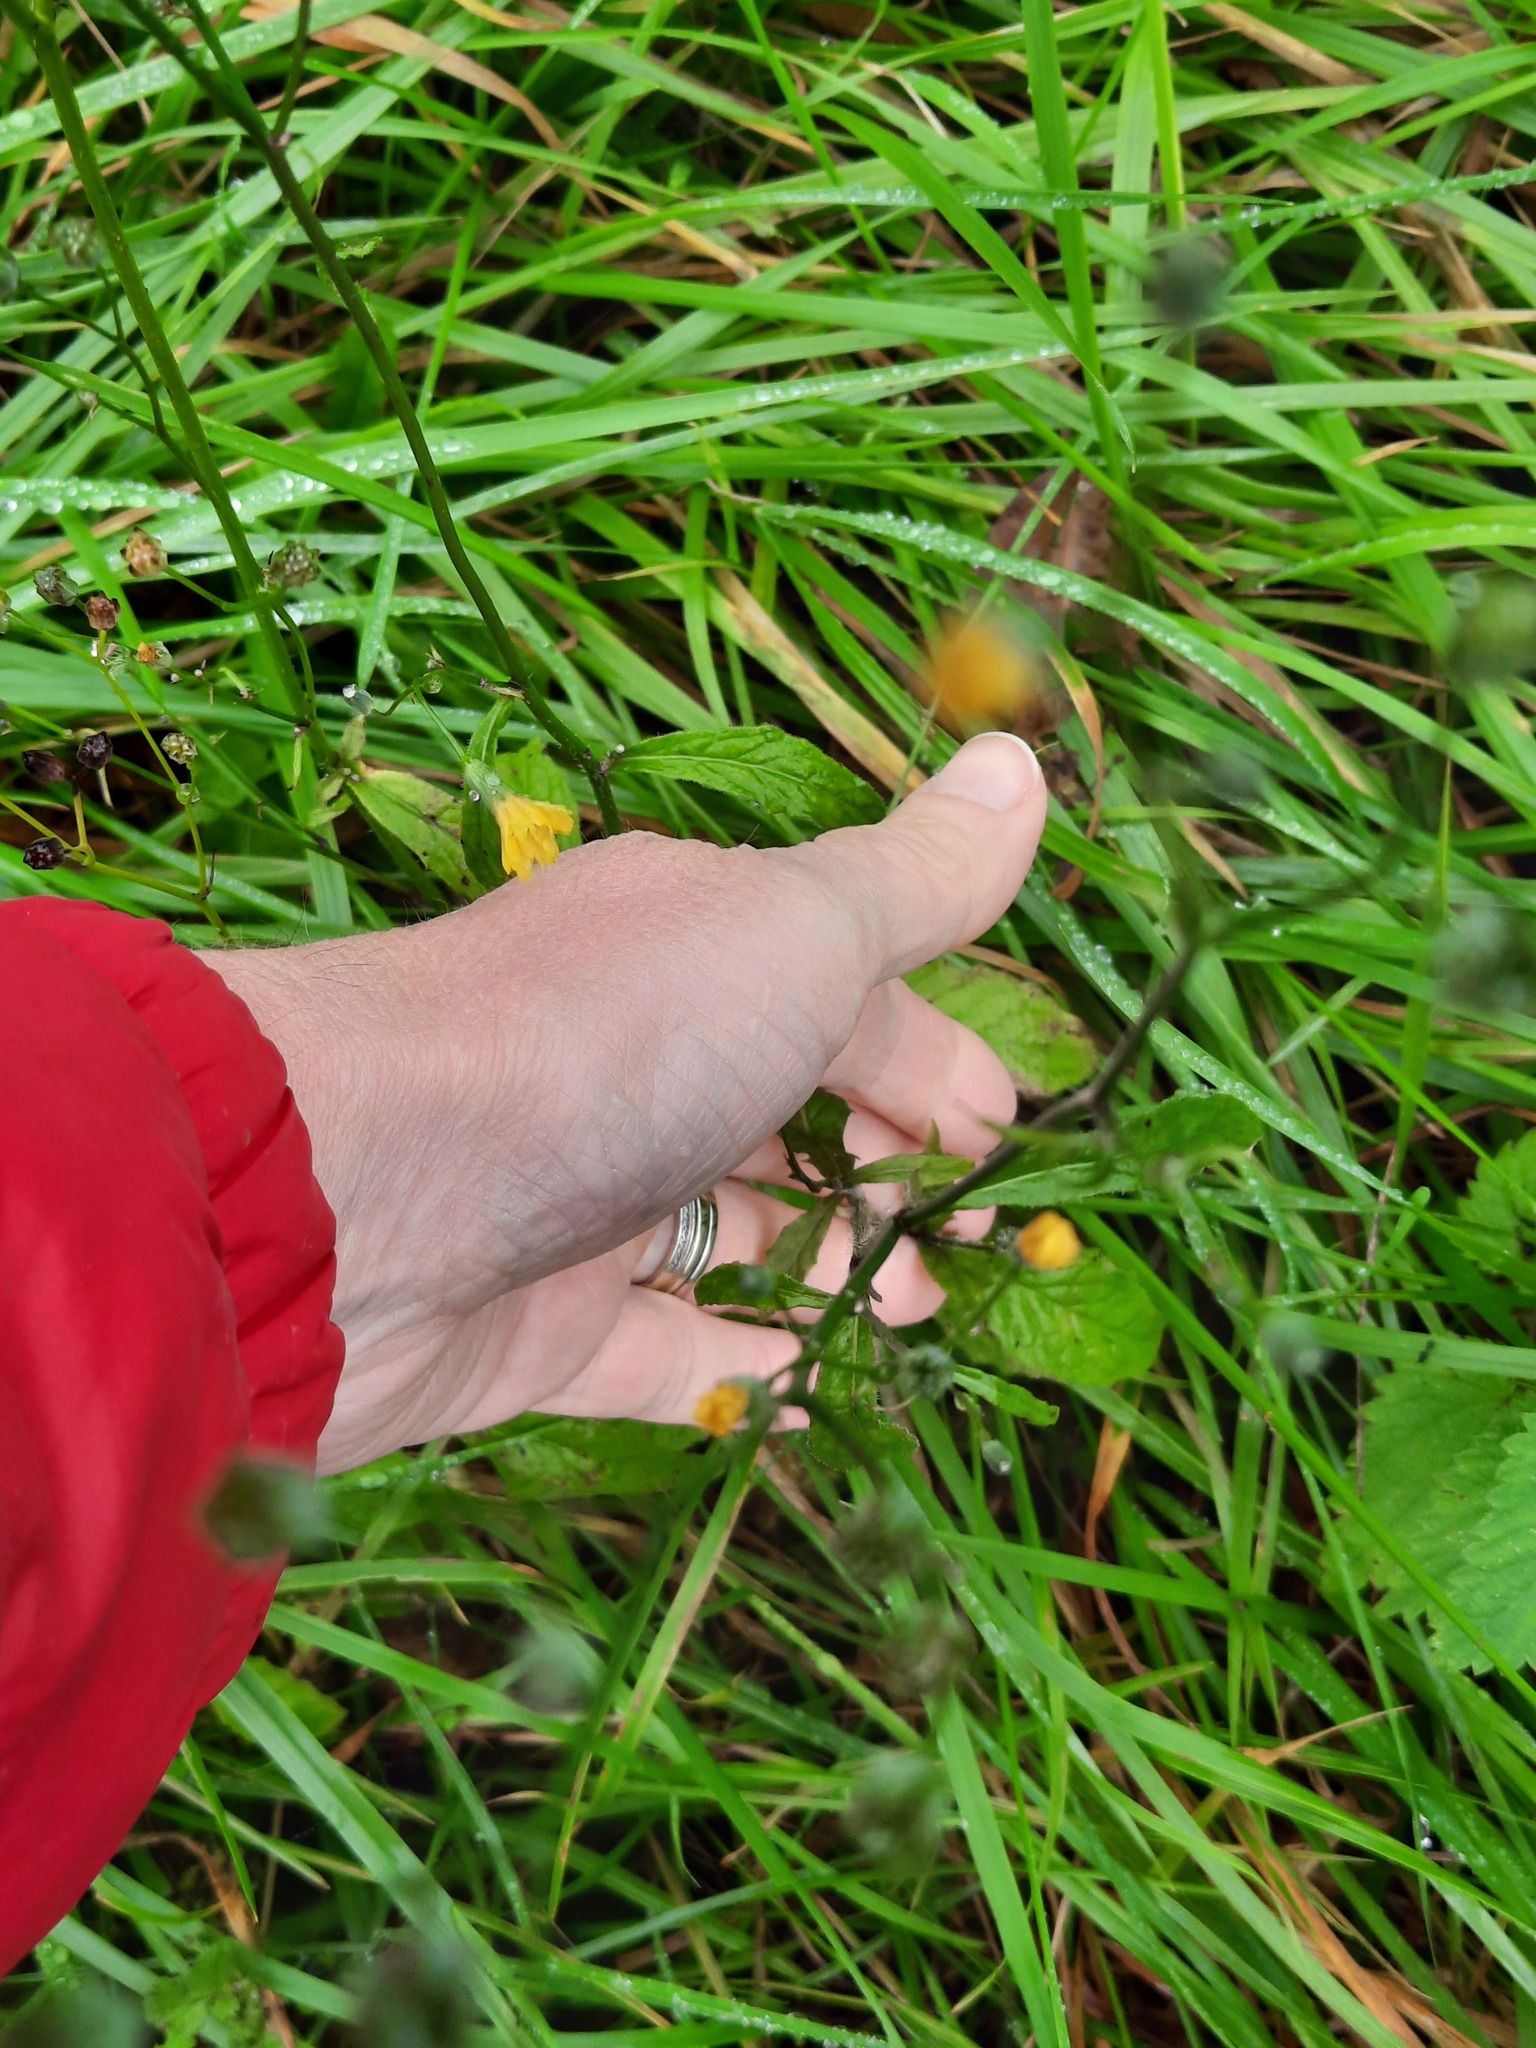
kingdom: Plantae
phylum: Tracheophyta
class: Magnoliopsida
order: Asterales
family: Asteraceae
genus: Lapsana
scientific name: Lapsana communis
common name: Nipplewort
